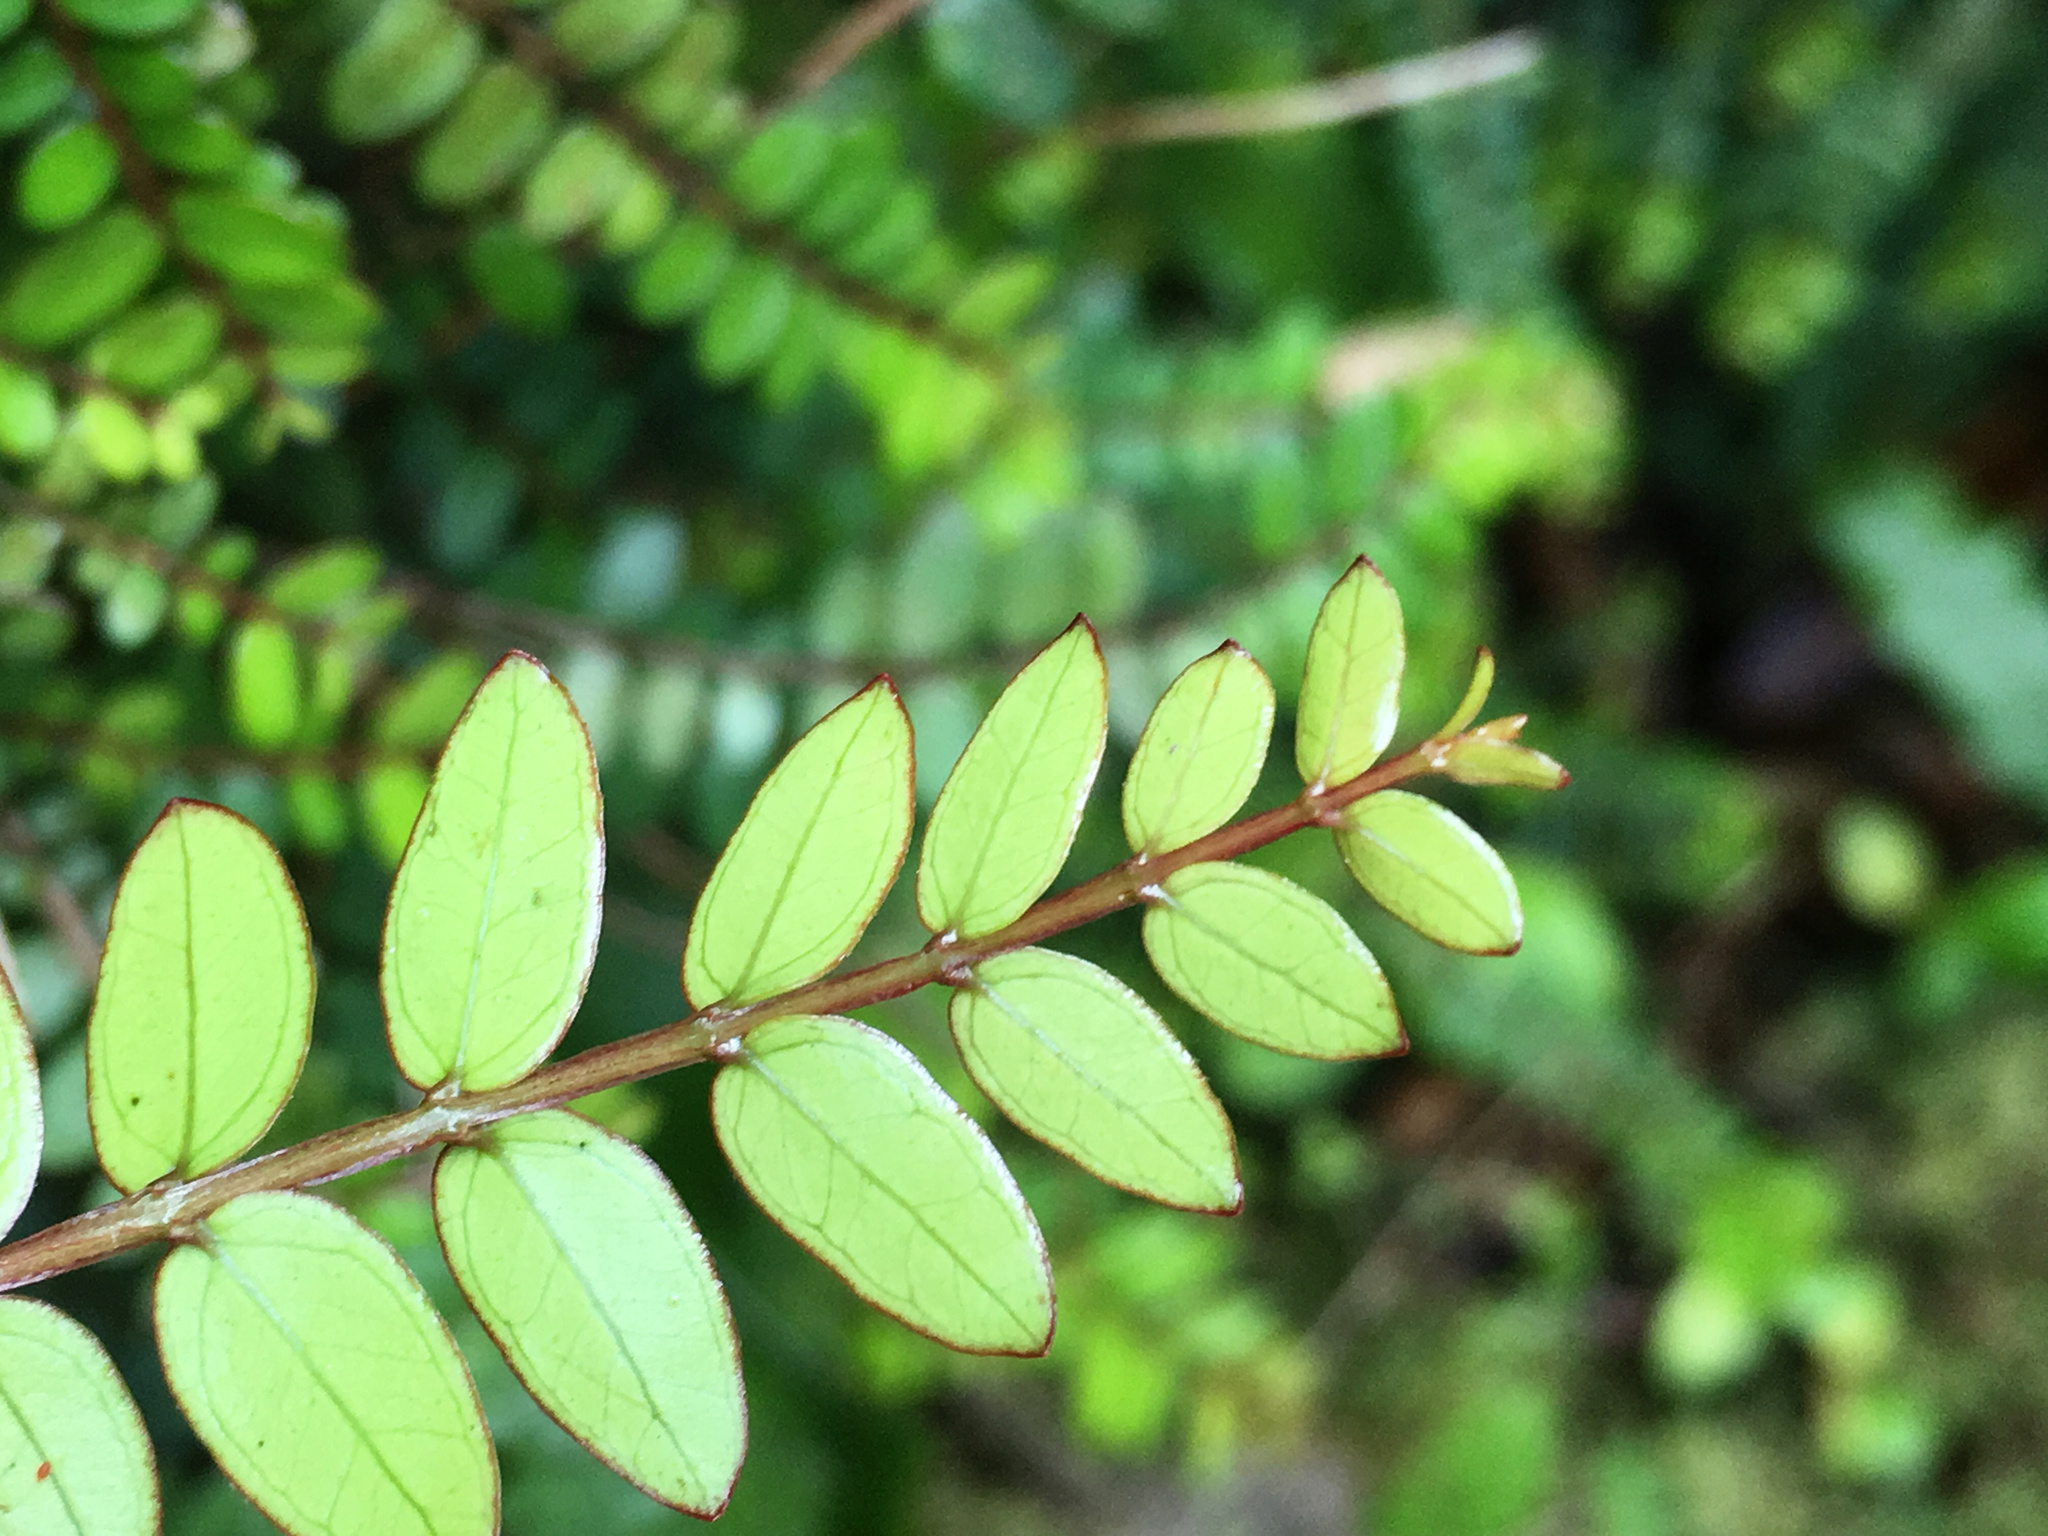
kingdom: Plantae
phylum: Tracheophyta
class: Magnoliopsida
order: Myrtales
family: Myrtaceae
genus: Metrosideros
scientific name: Metrosideros diffusa
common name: Small ratavine
